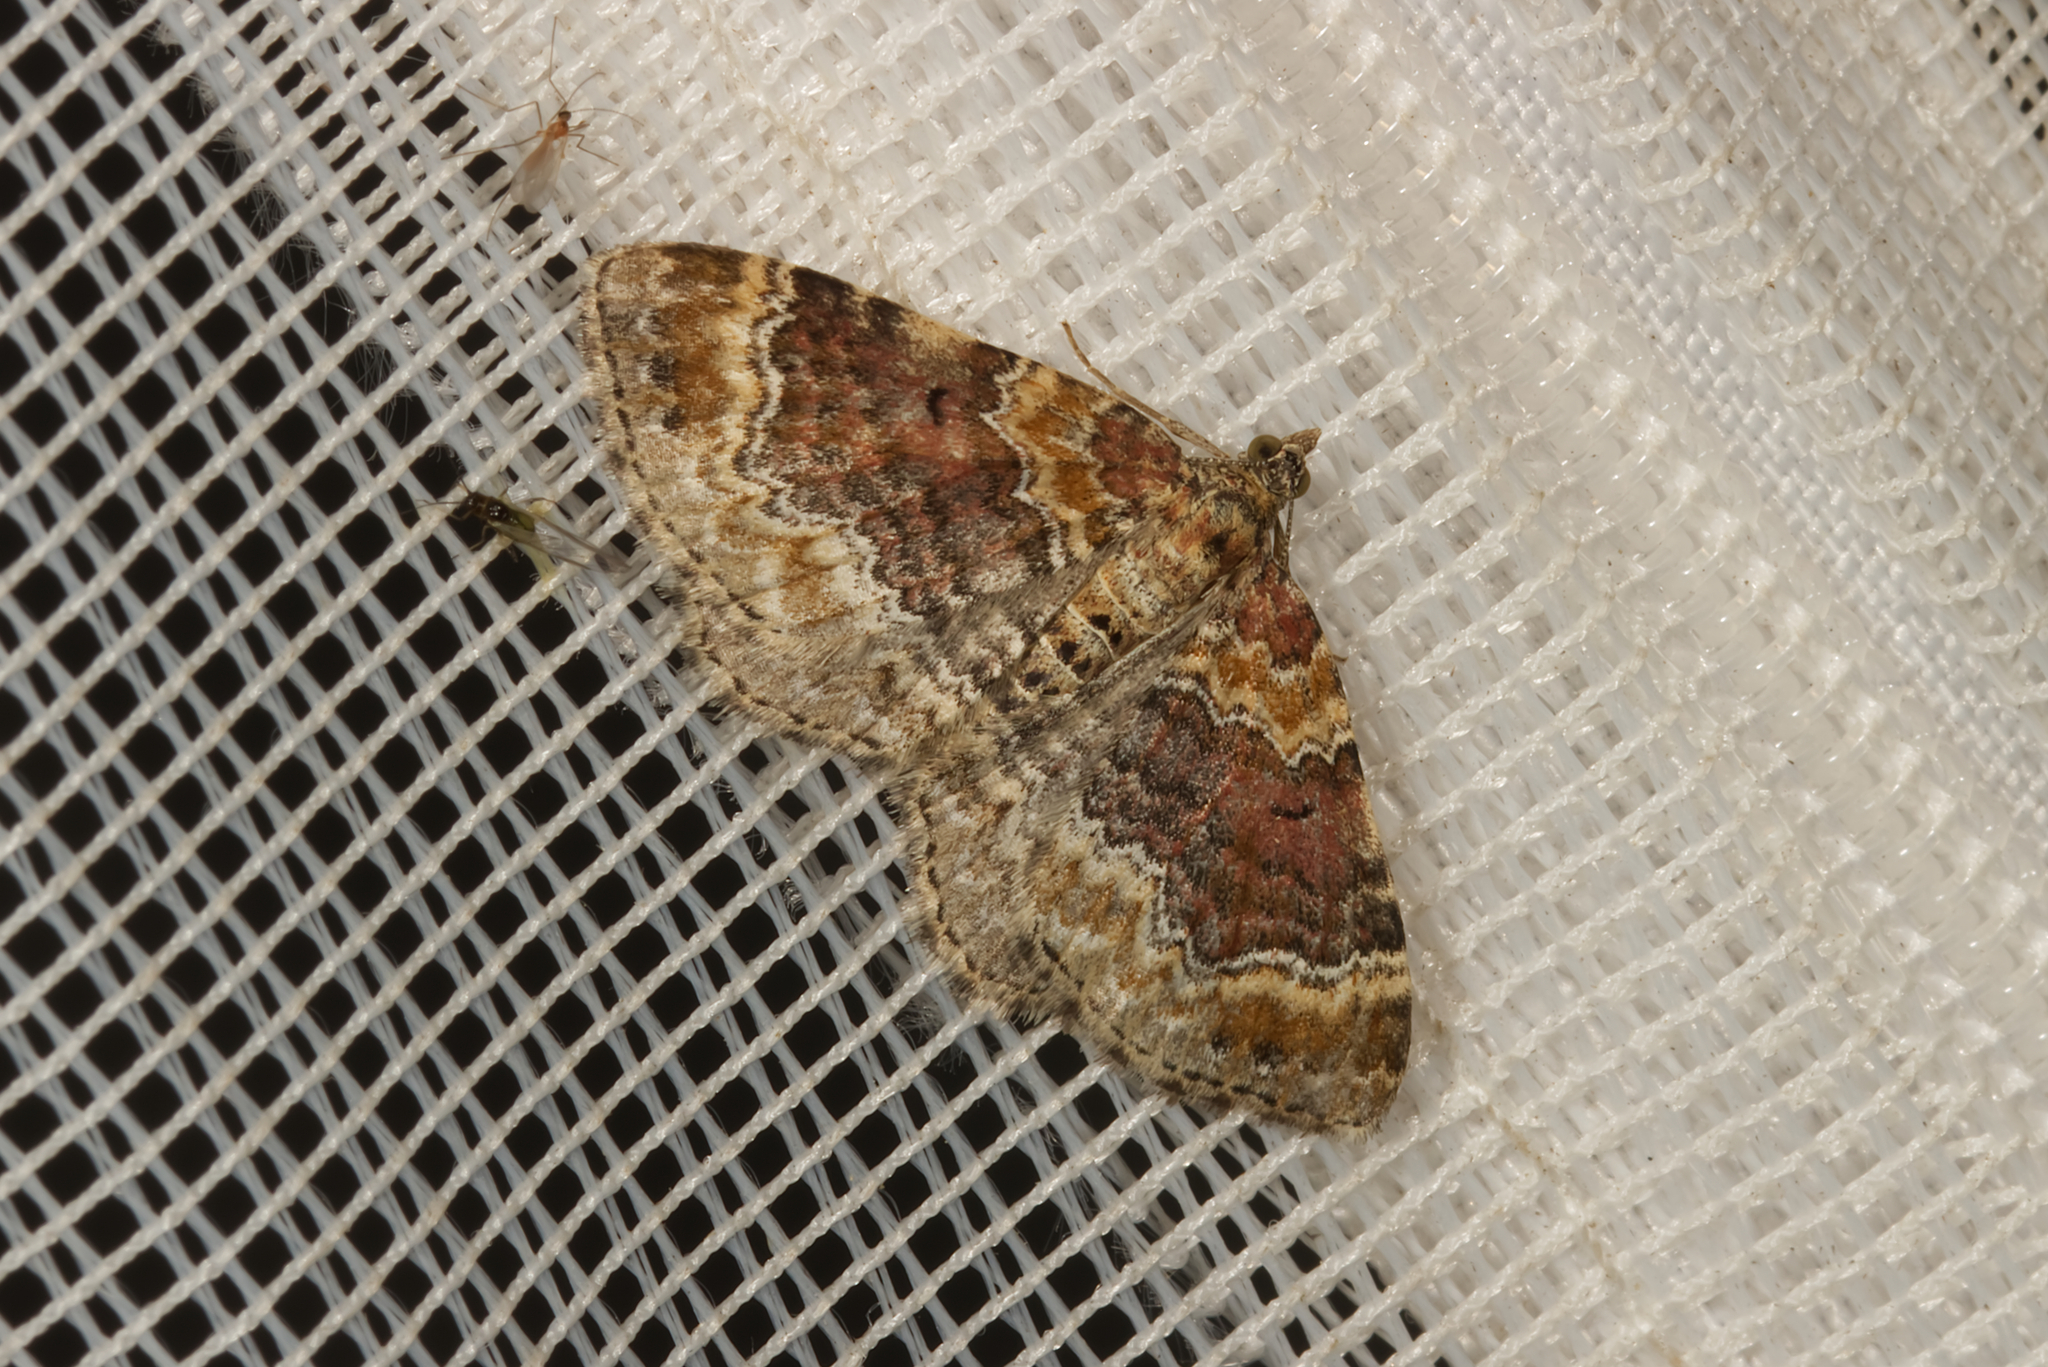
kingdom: Animalia
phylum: Arthropoda
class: Insecta
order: Lepidoptera
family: Geometridae
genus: Xanthorhoe
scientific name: Xanthorhoe spadicearia
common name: Red twin-spot carpet
